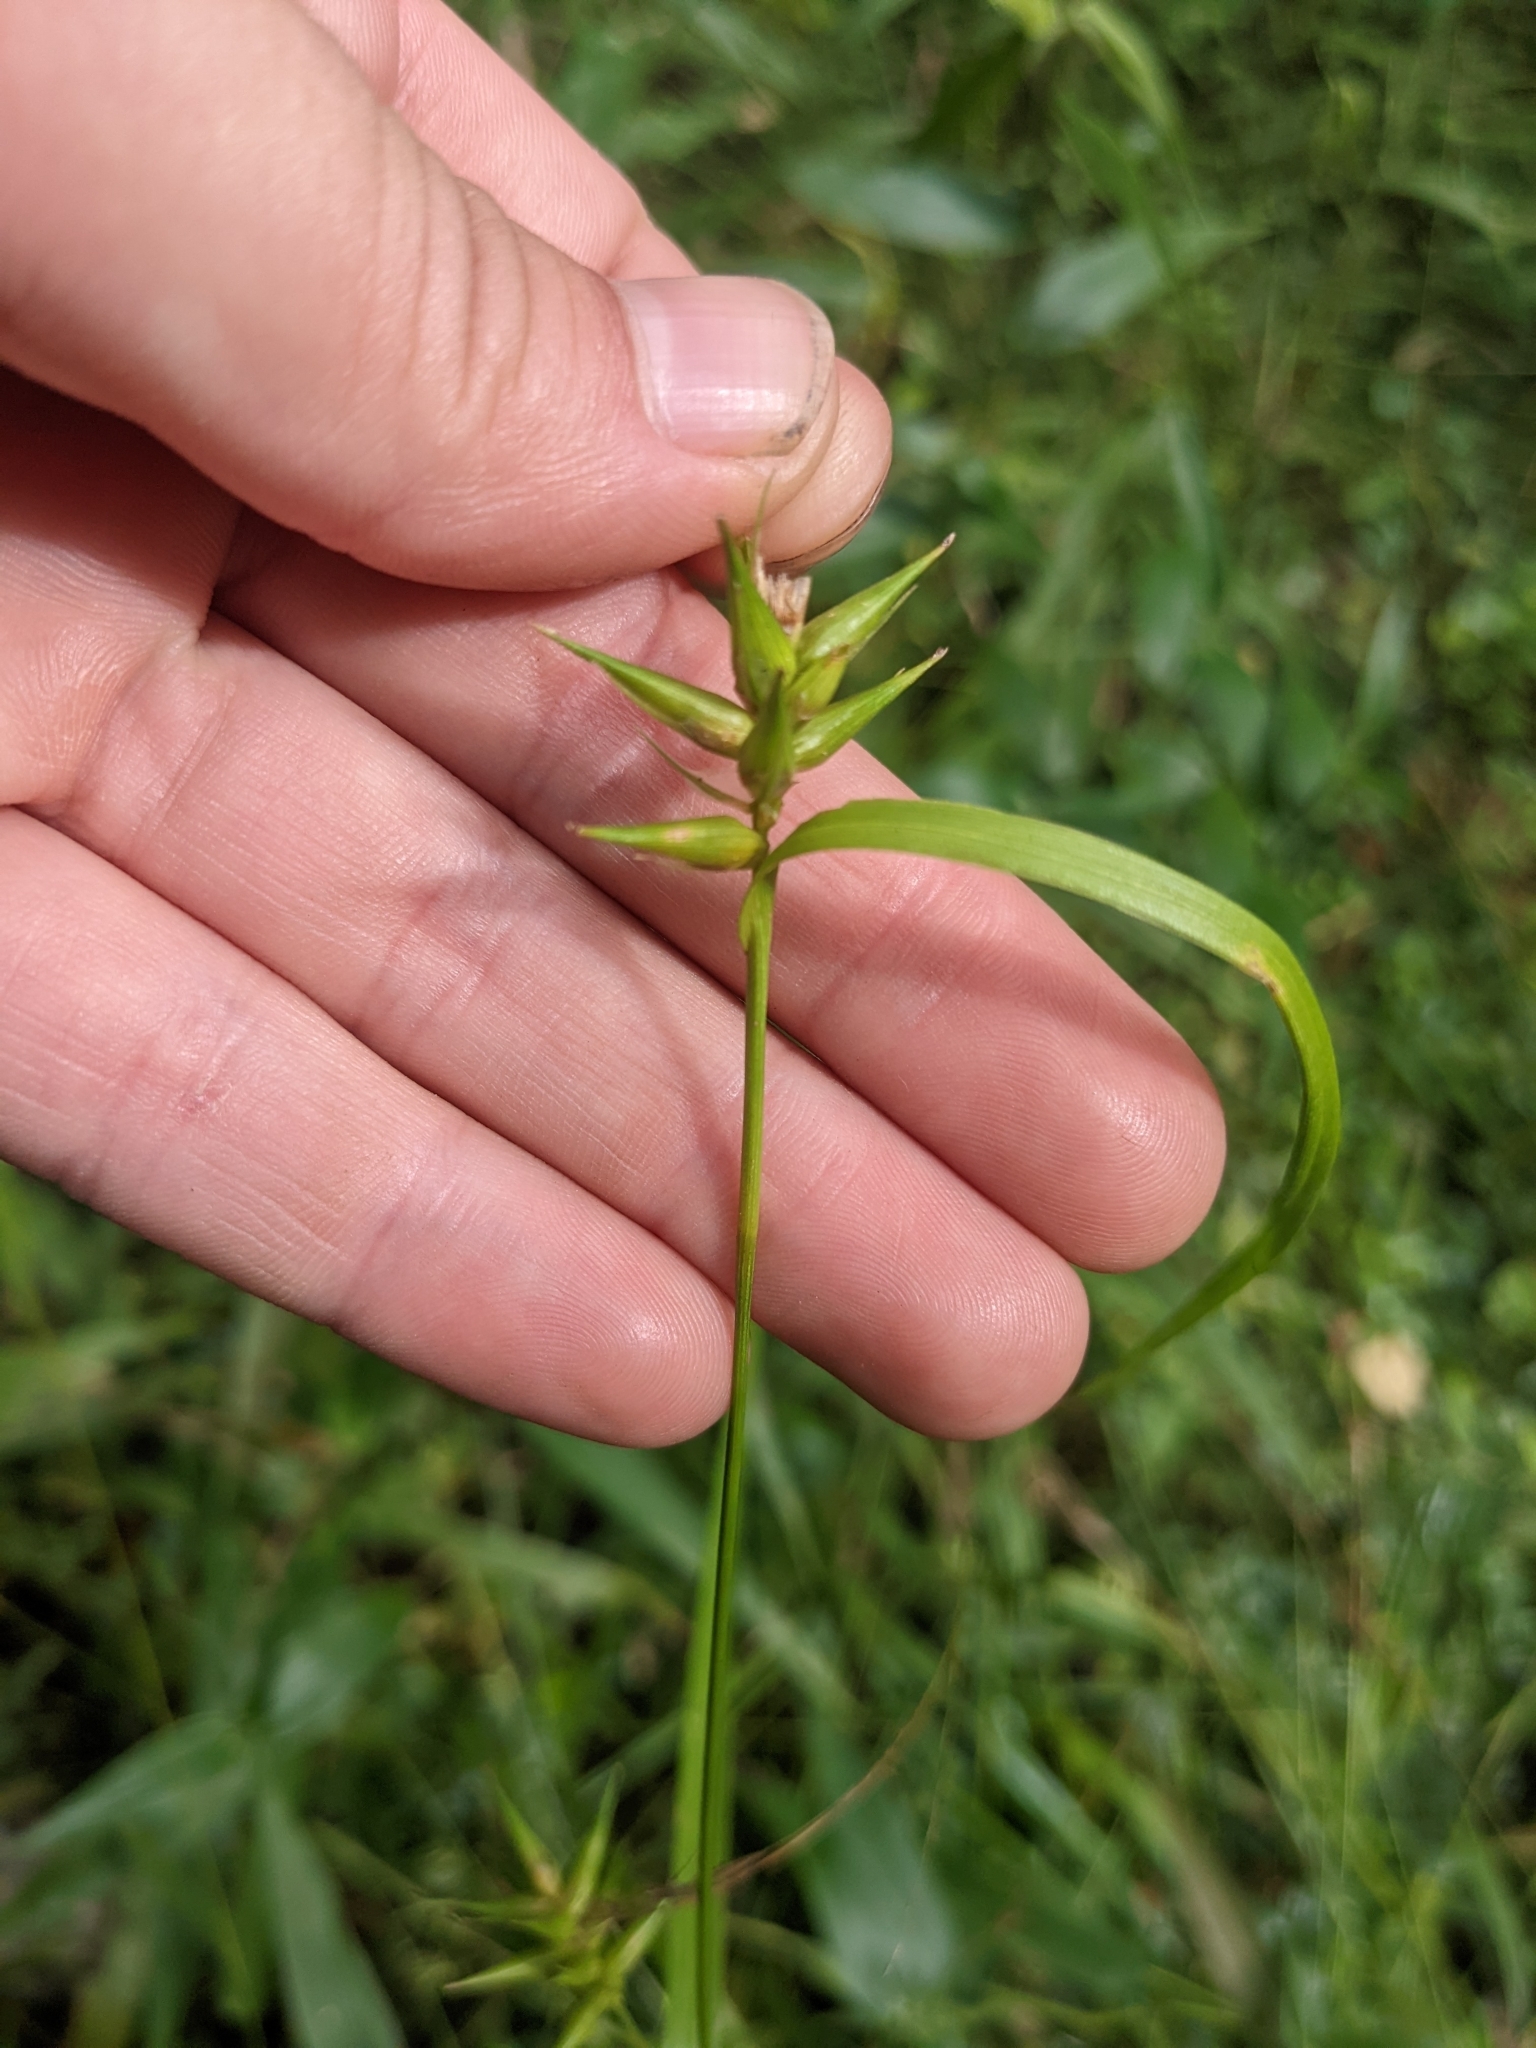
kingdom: Plantae
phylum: Tracheophyta
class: Liliopsida
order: Poales
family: Cyperaceae
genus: Carex
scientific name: Carex folliculata
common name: Northern long sedge
